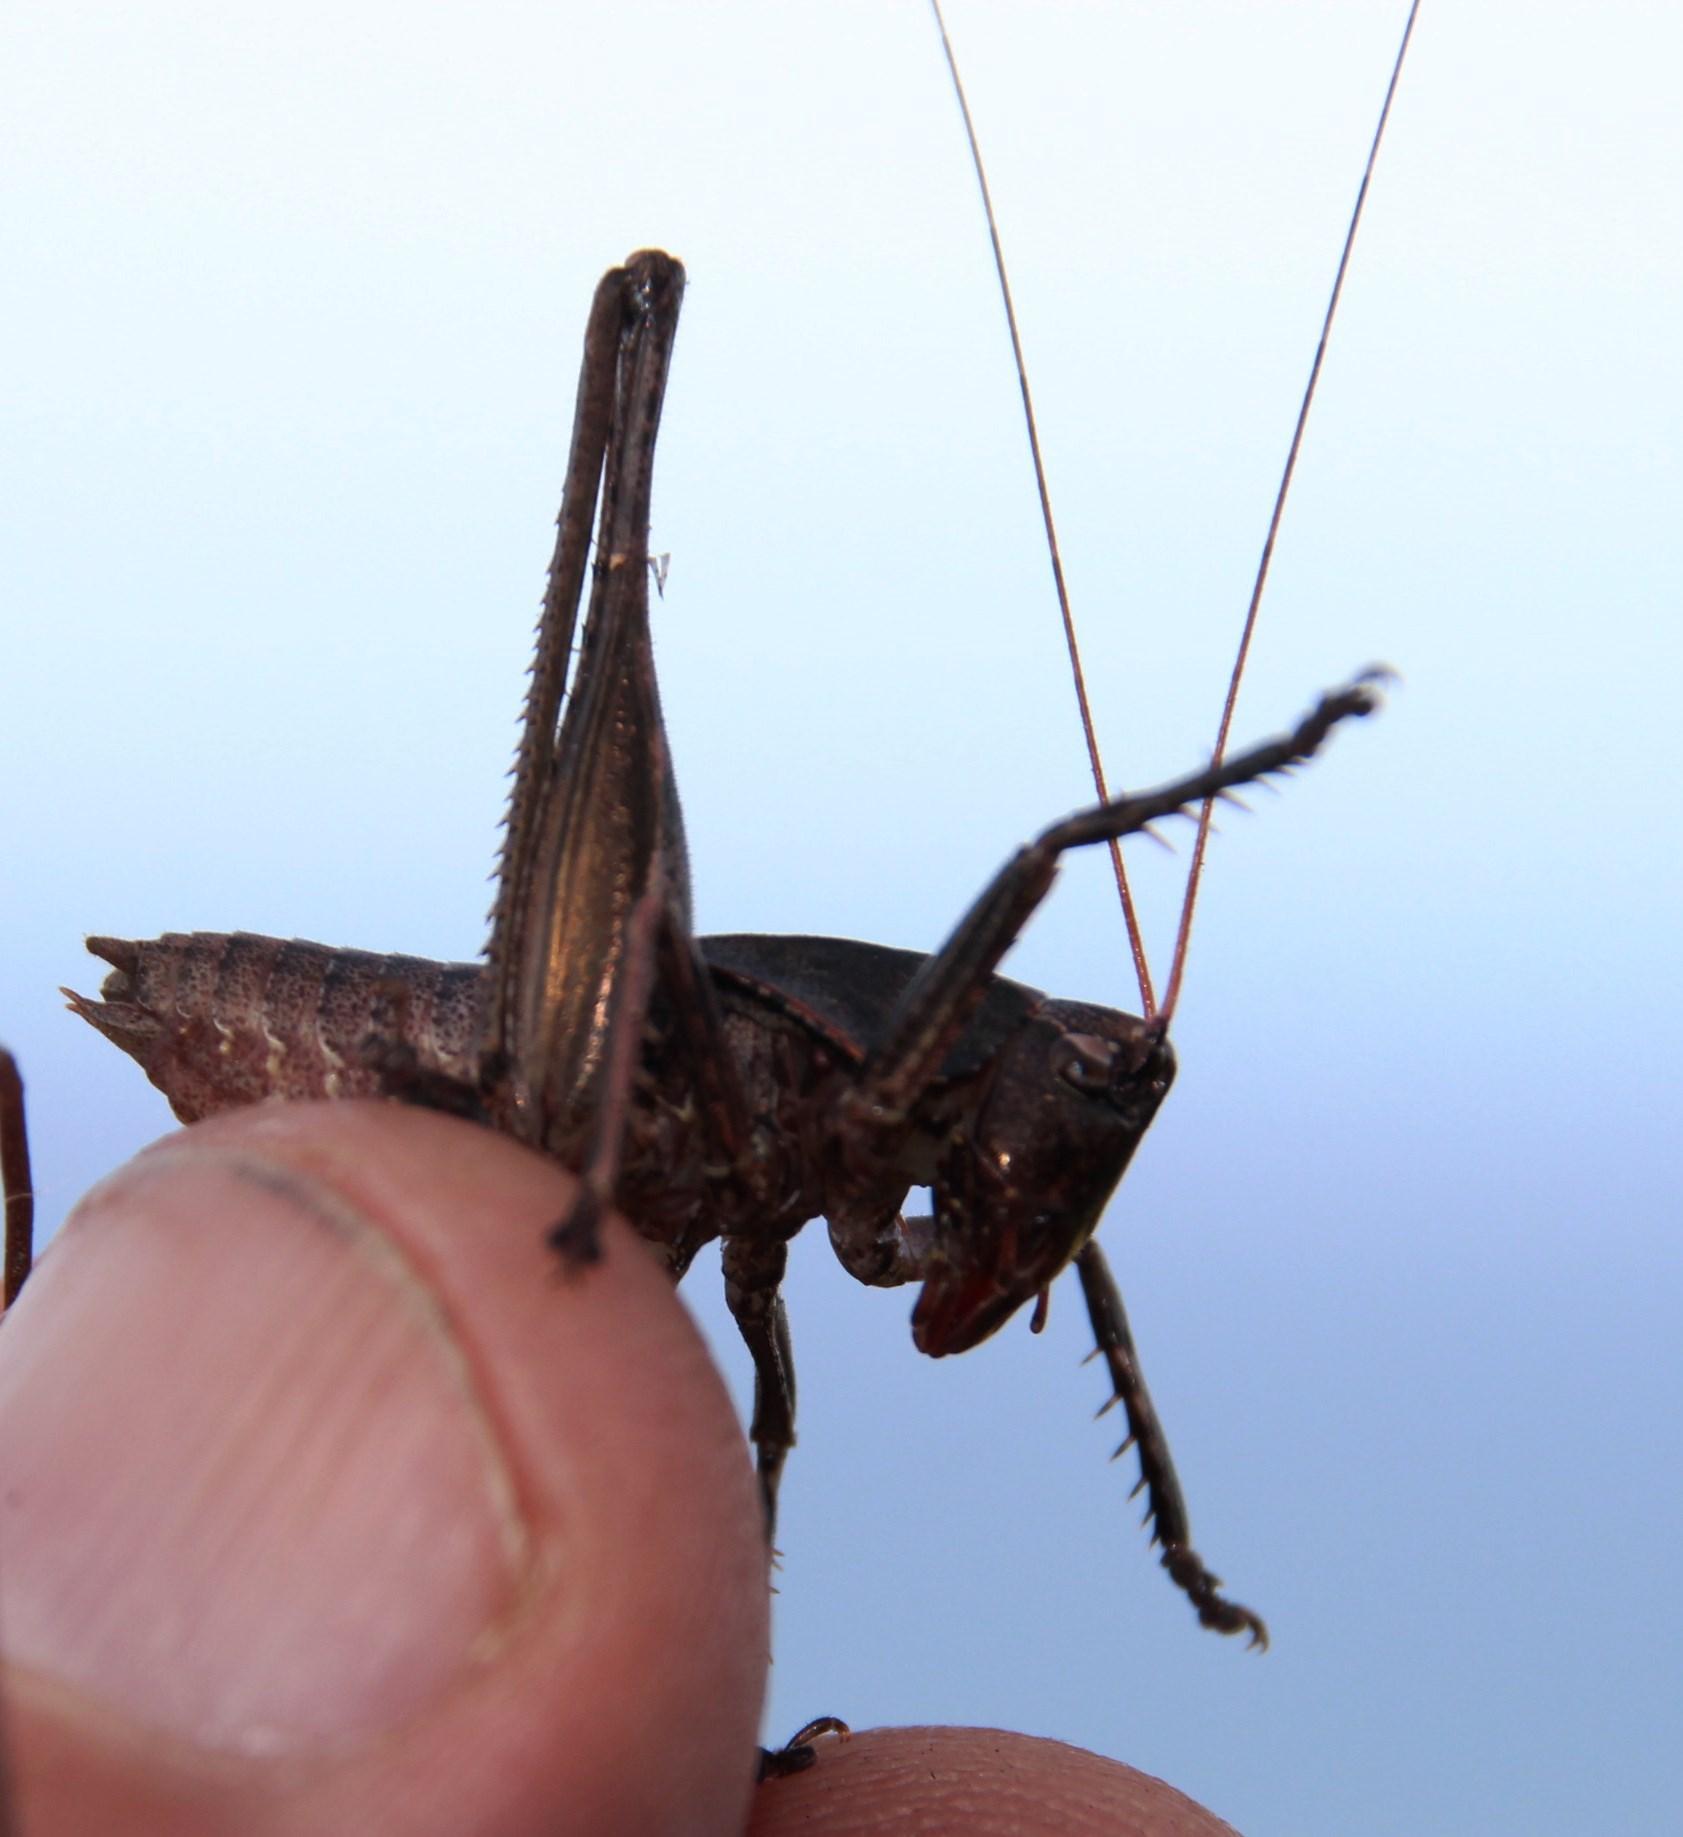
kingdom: Animalia
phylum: Arthropoda
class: Insecta
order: Orthoptera
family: Tettigoniidae
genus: Alfredectes
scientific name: Alfredectes semiaeneus
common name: Alfred's shieldback
